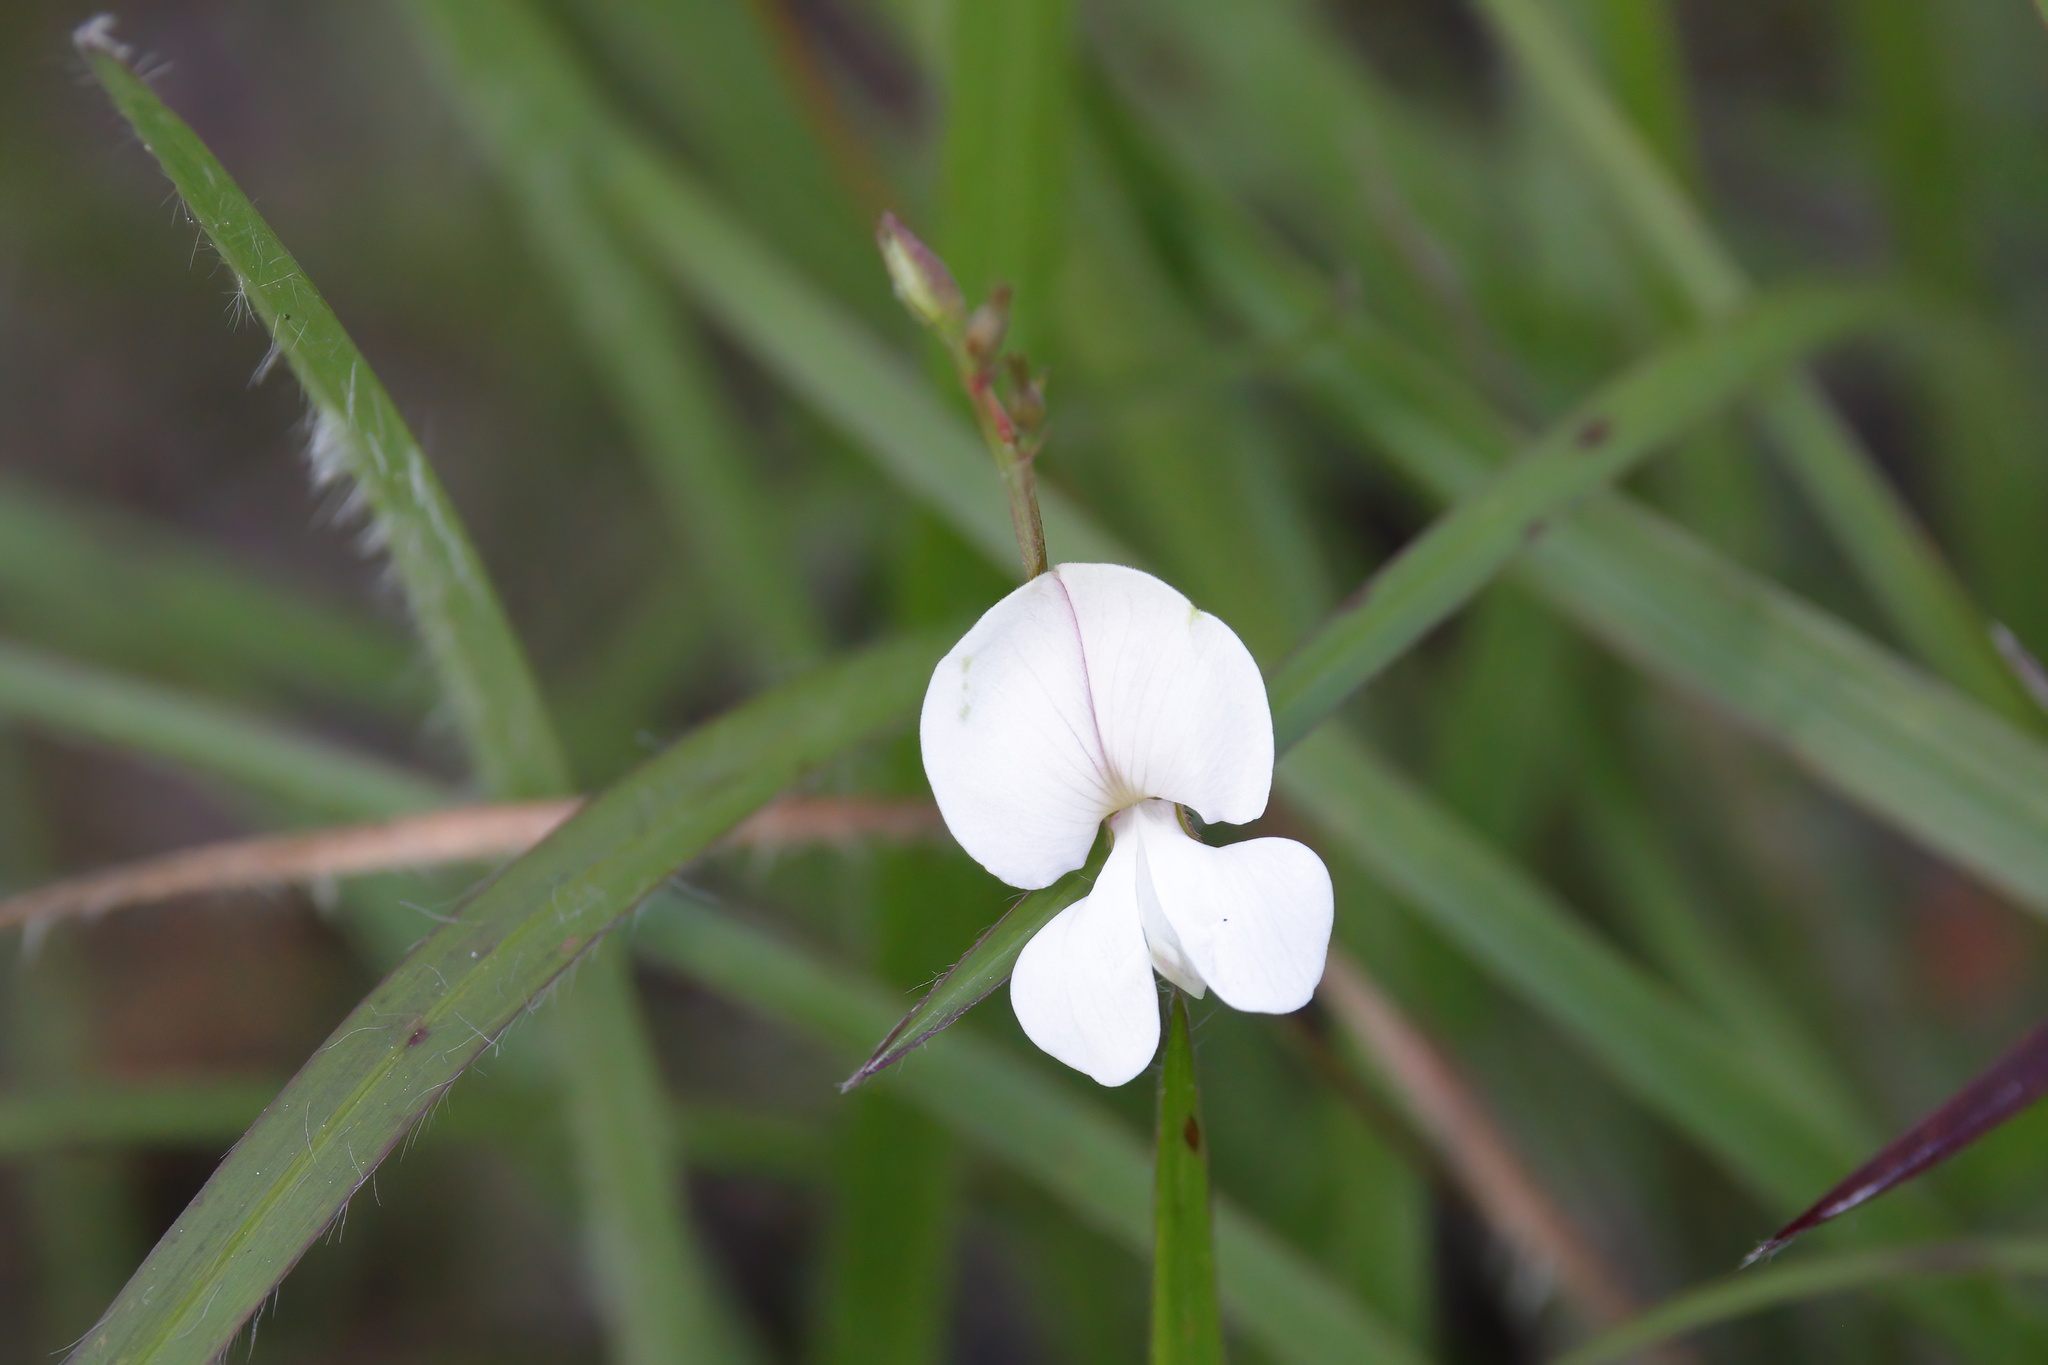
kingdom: Plantae
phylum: Tracheophyta
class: Magnoliopsida
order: Fabales
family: Fabaceae
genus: Tephrosia
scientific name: Tephrosia spicata
